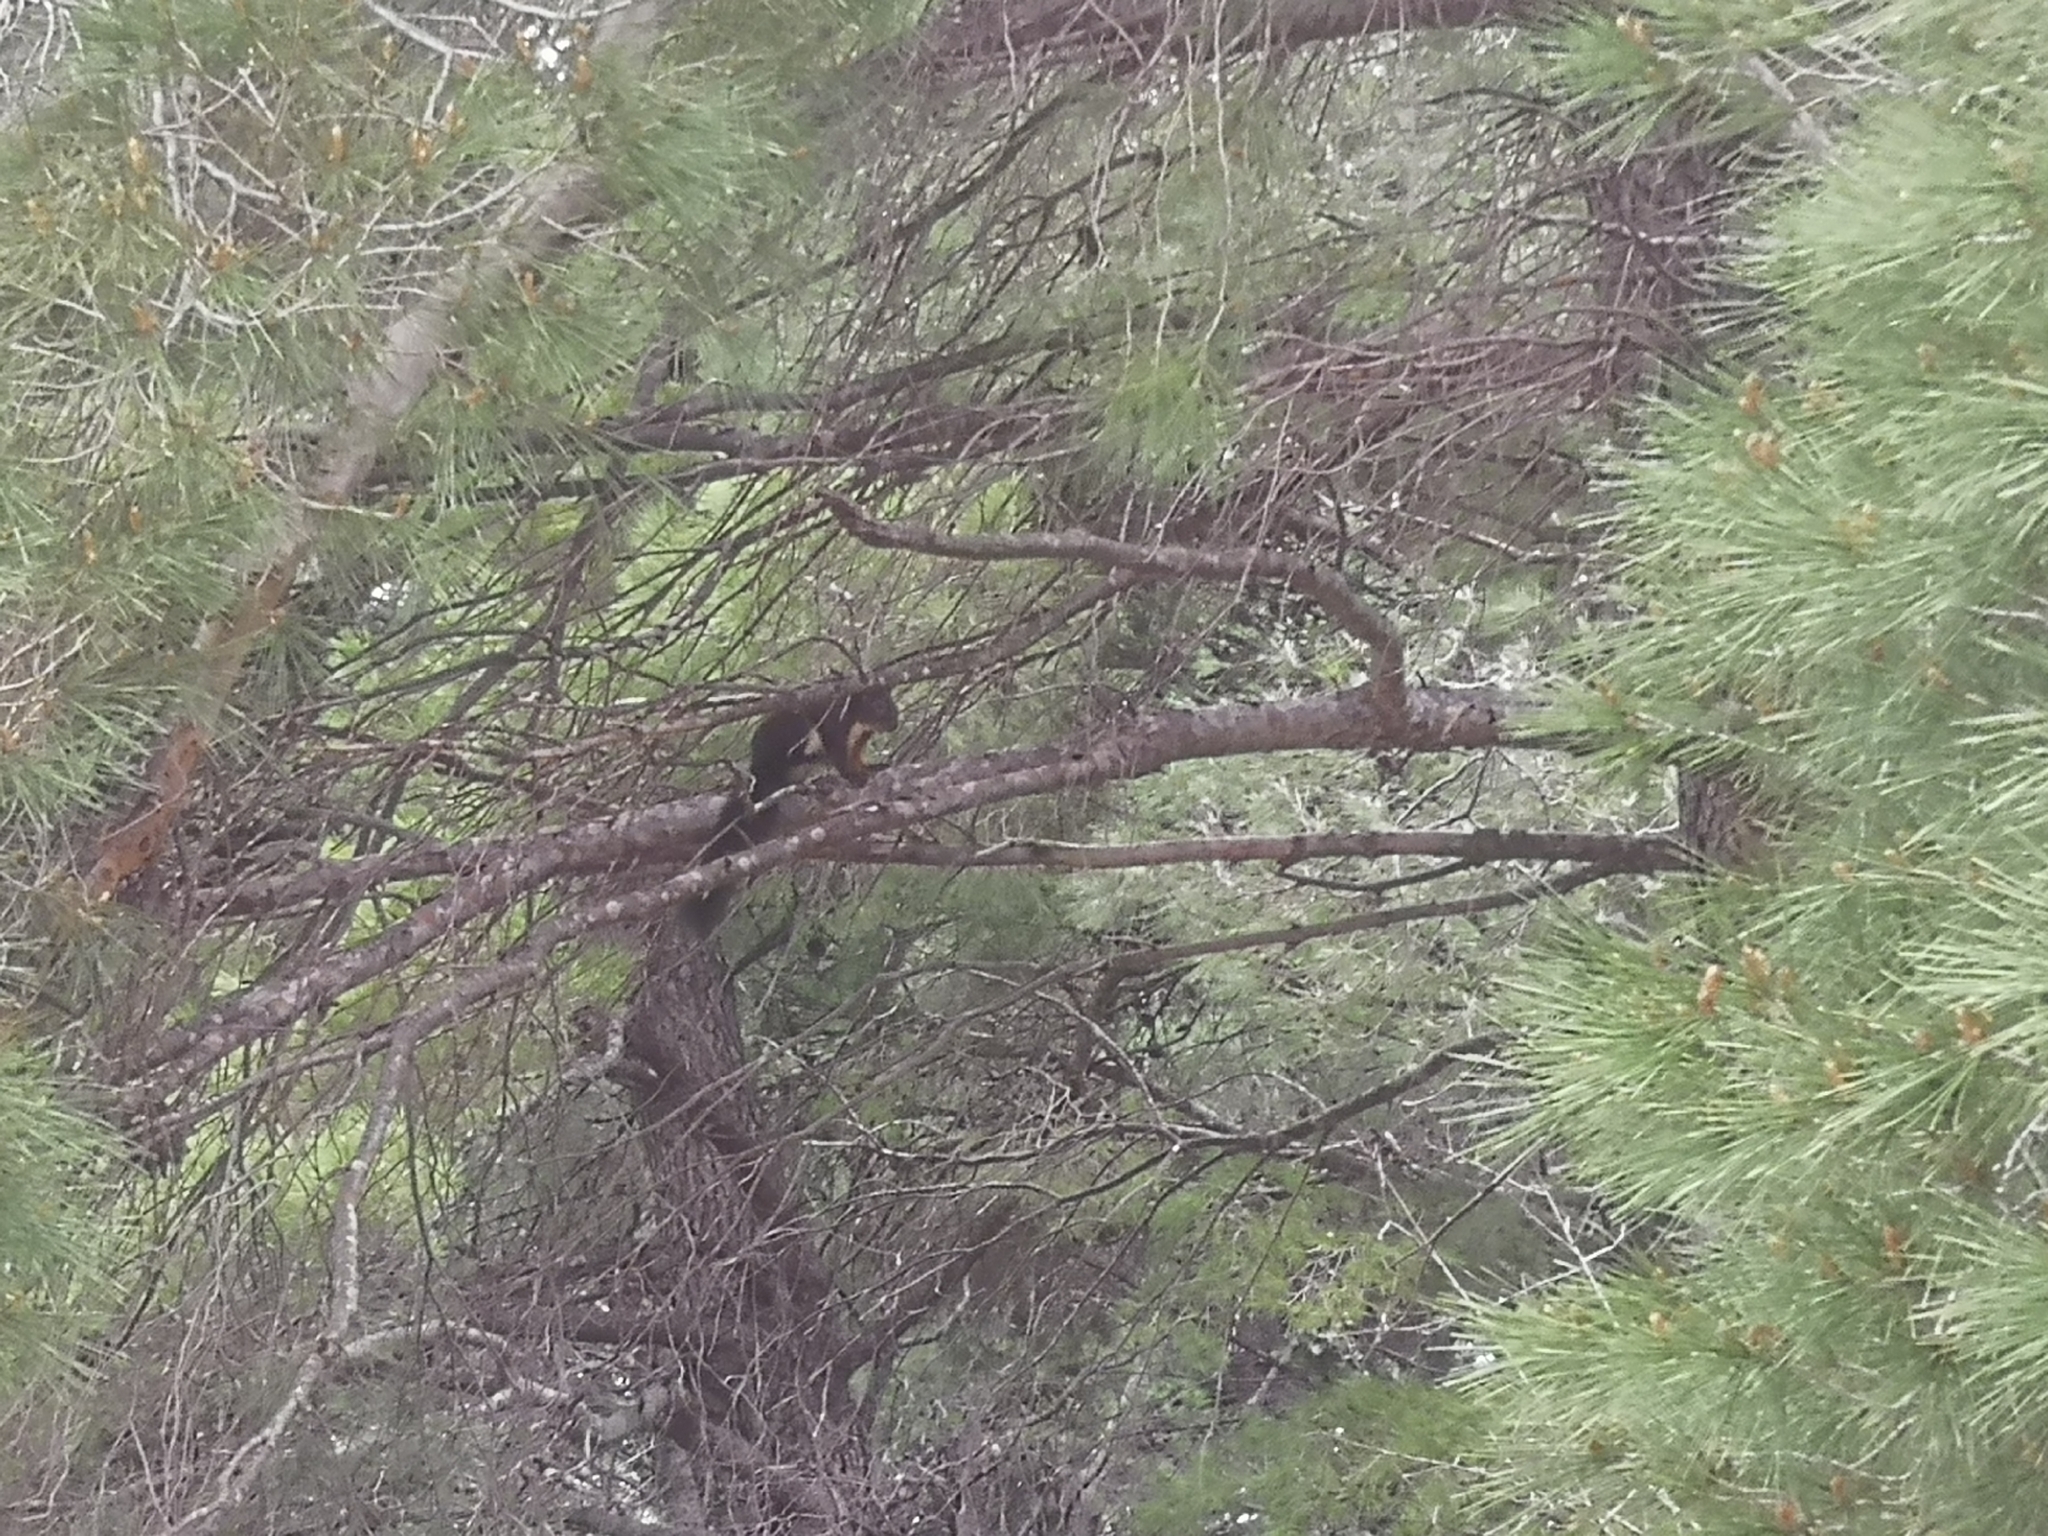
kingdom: Animalia
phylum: Chordata
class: Mammalia
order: Rodentia
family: Sciuridae
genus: Sciurus
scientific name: Sciurus vulgaris
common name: Eurasian red squirrel
